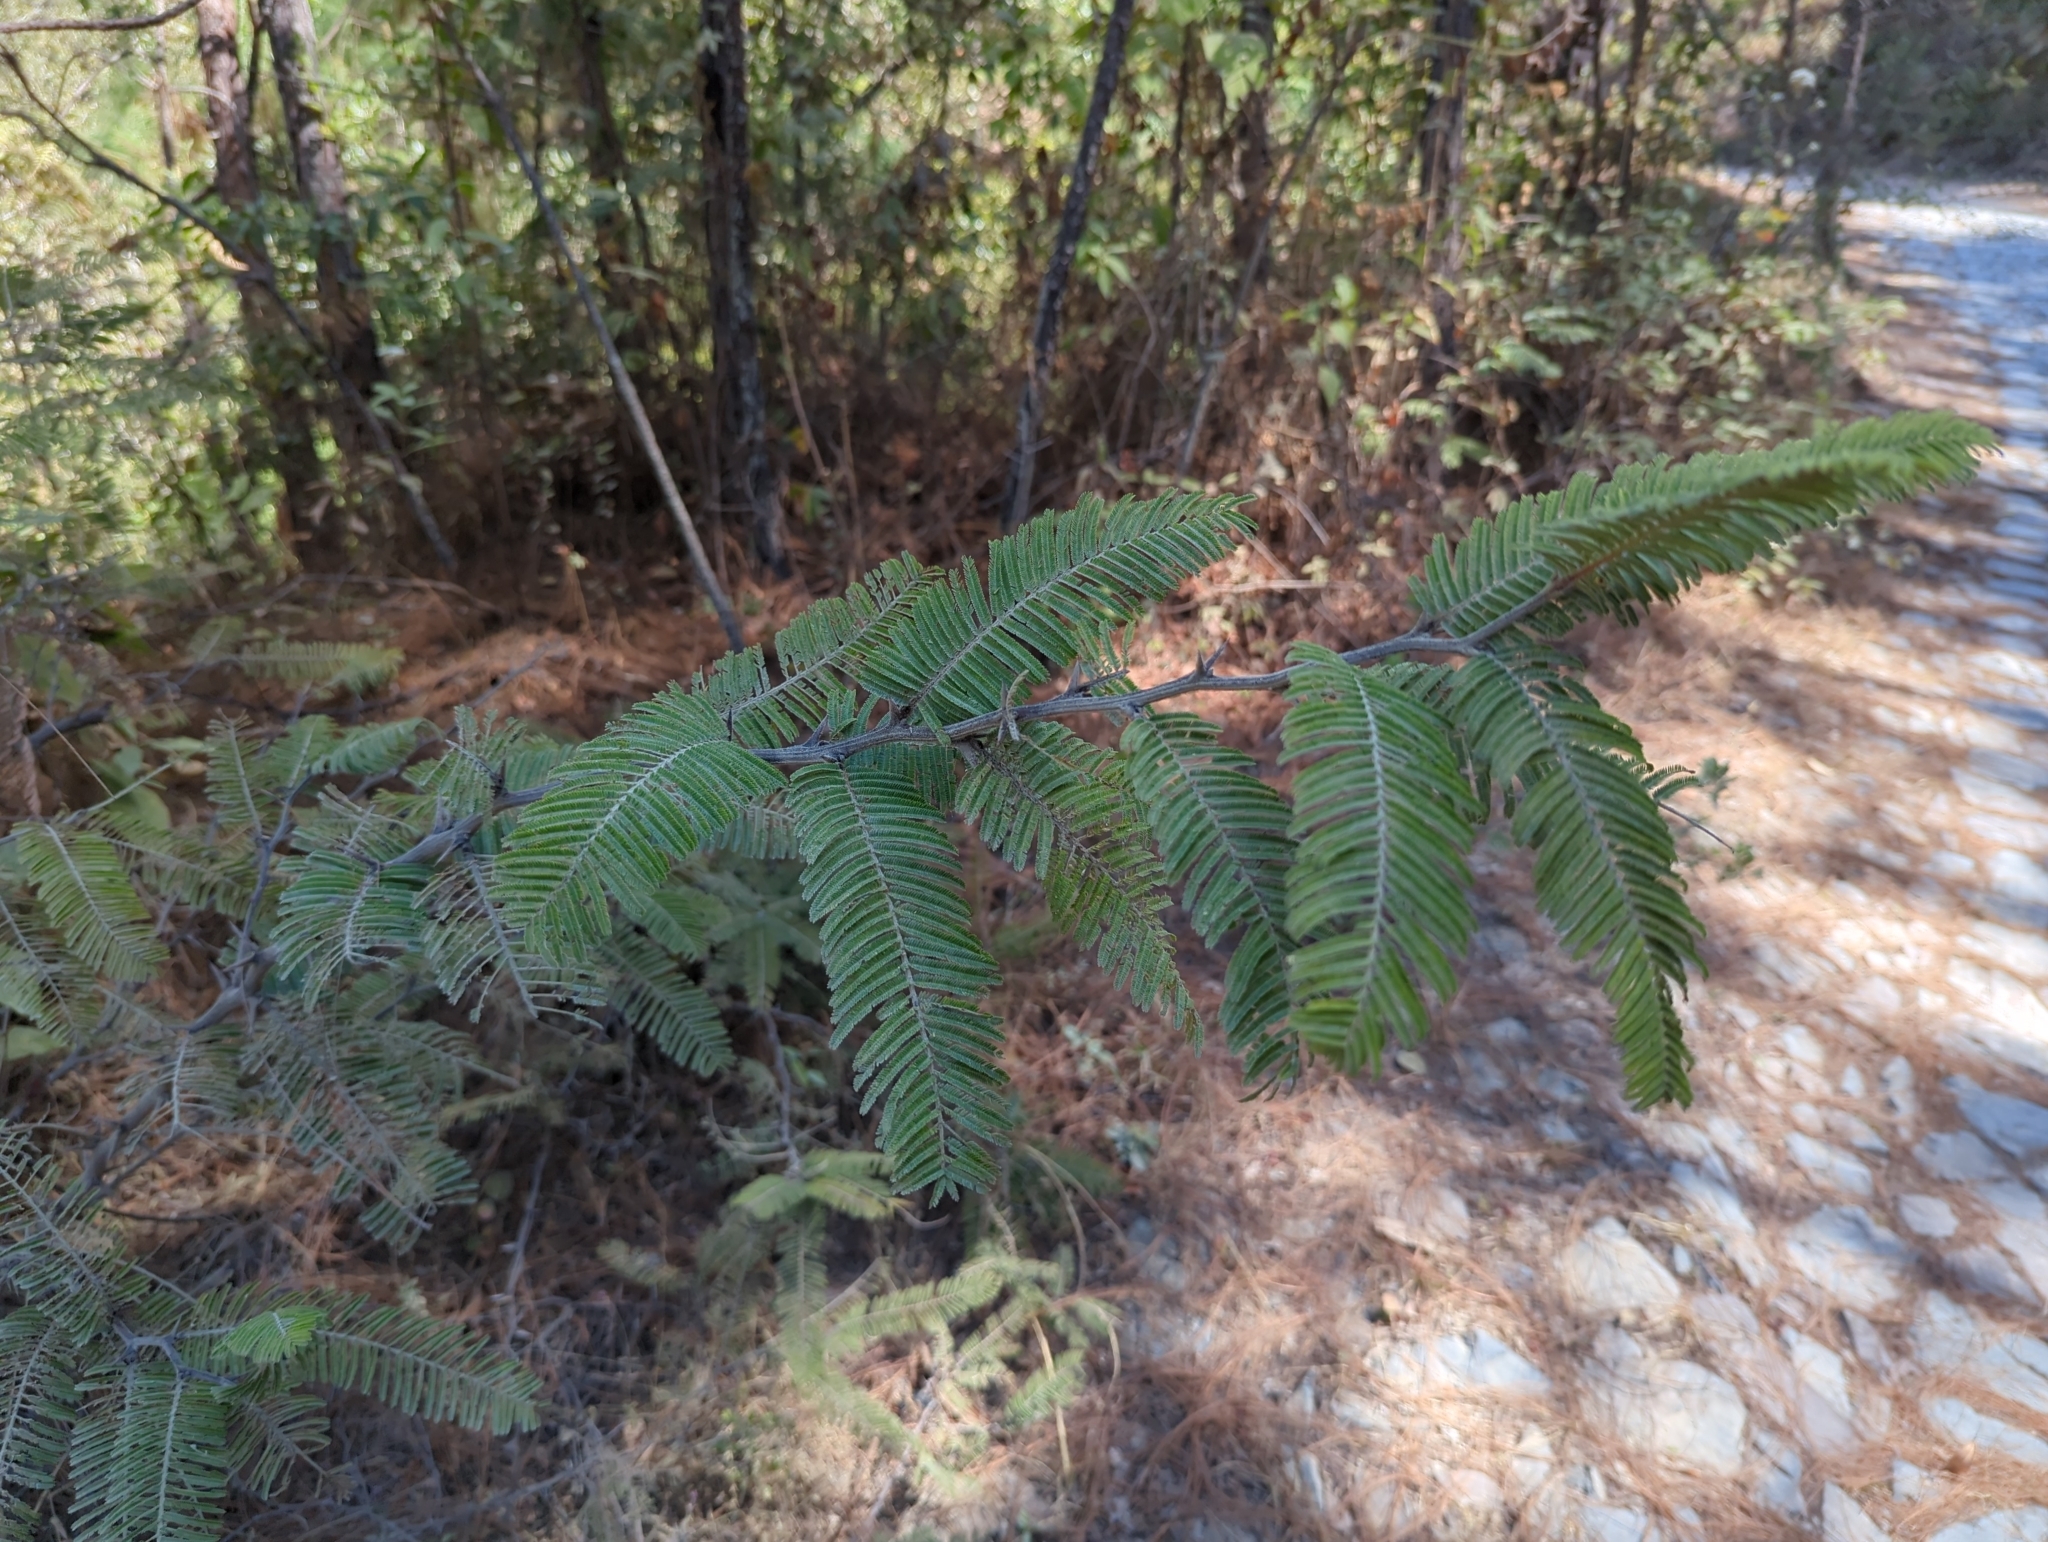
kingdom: Plantae
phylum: Tracheophyta
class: Magnoliopsida
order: Fabales
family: Fabaceae
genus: Vachellia
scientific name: Vachellia pennatula
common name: Fern-leaf acacia
